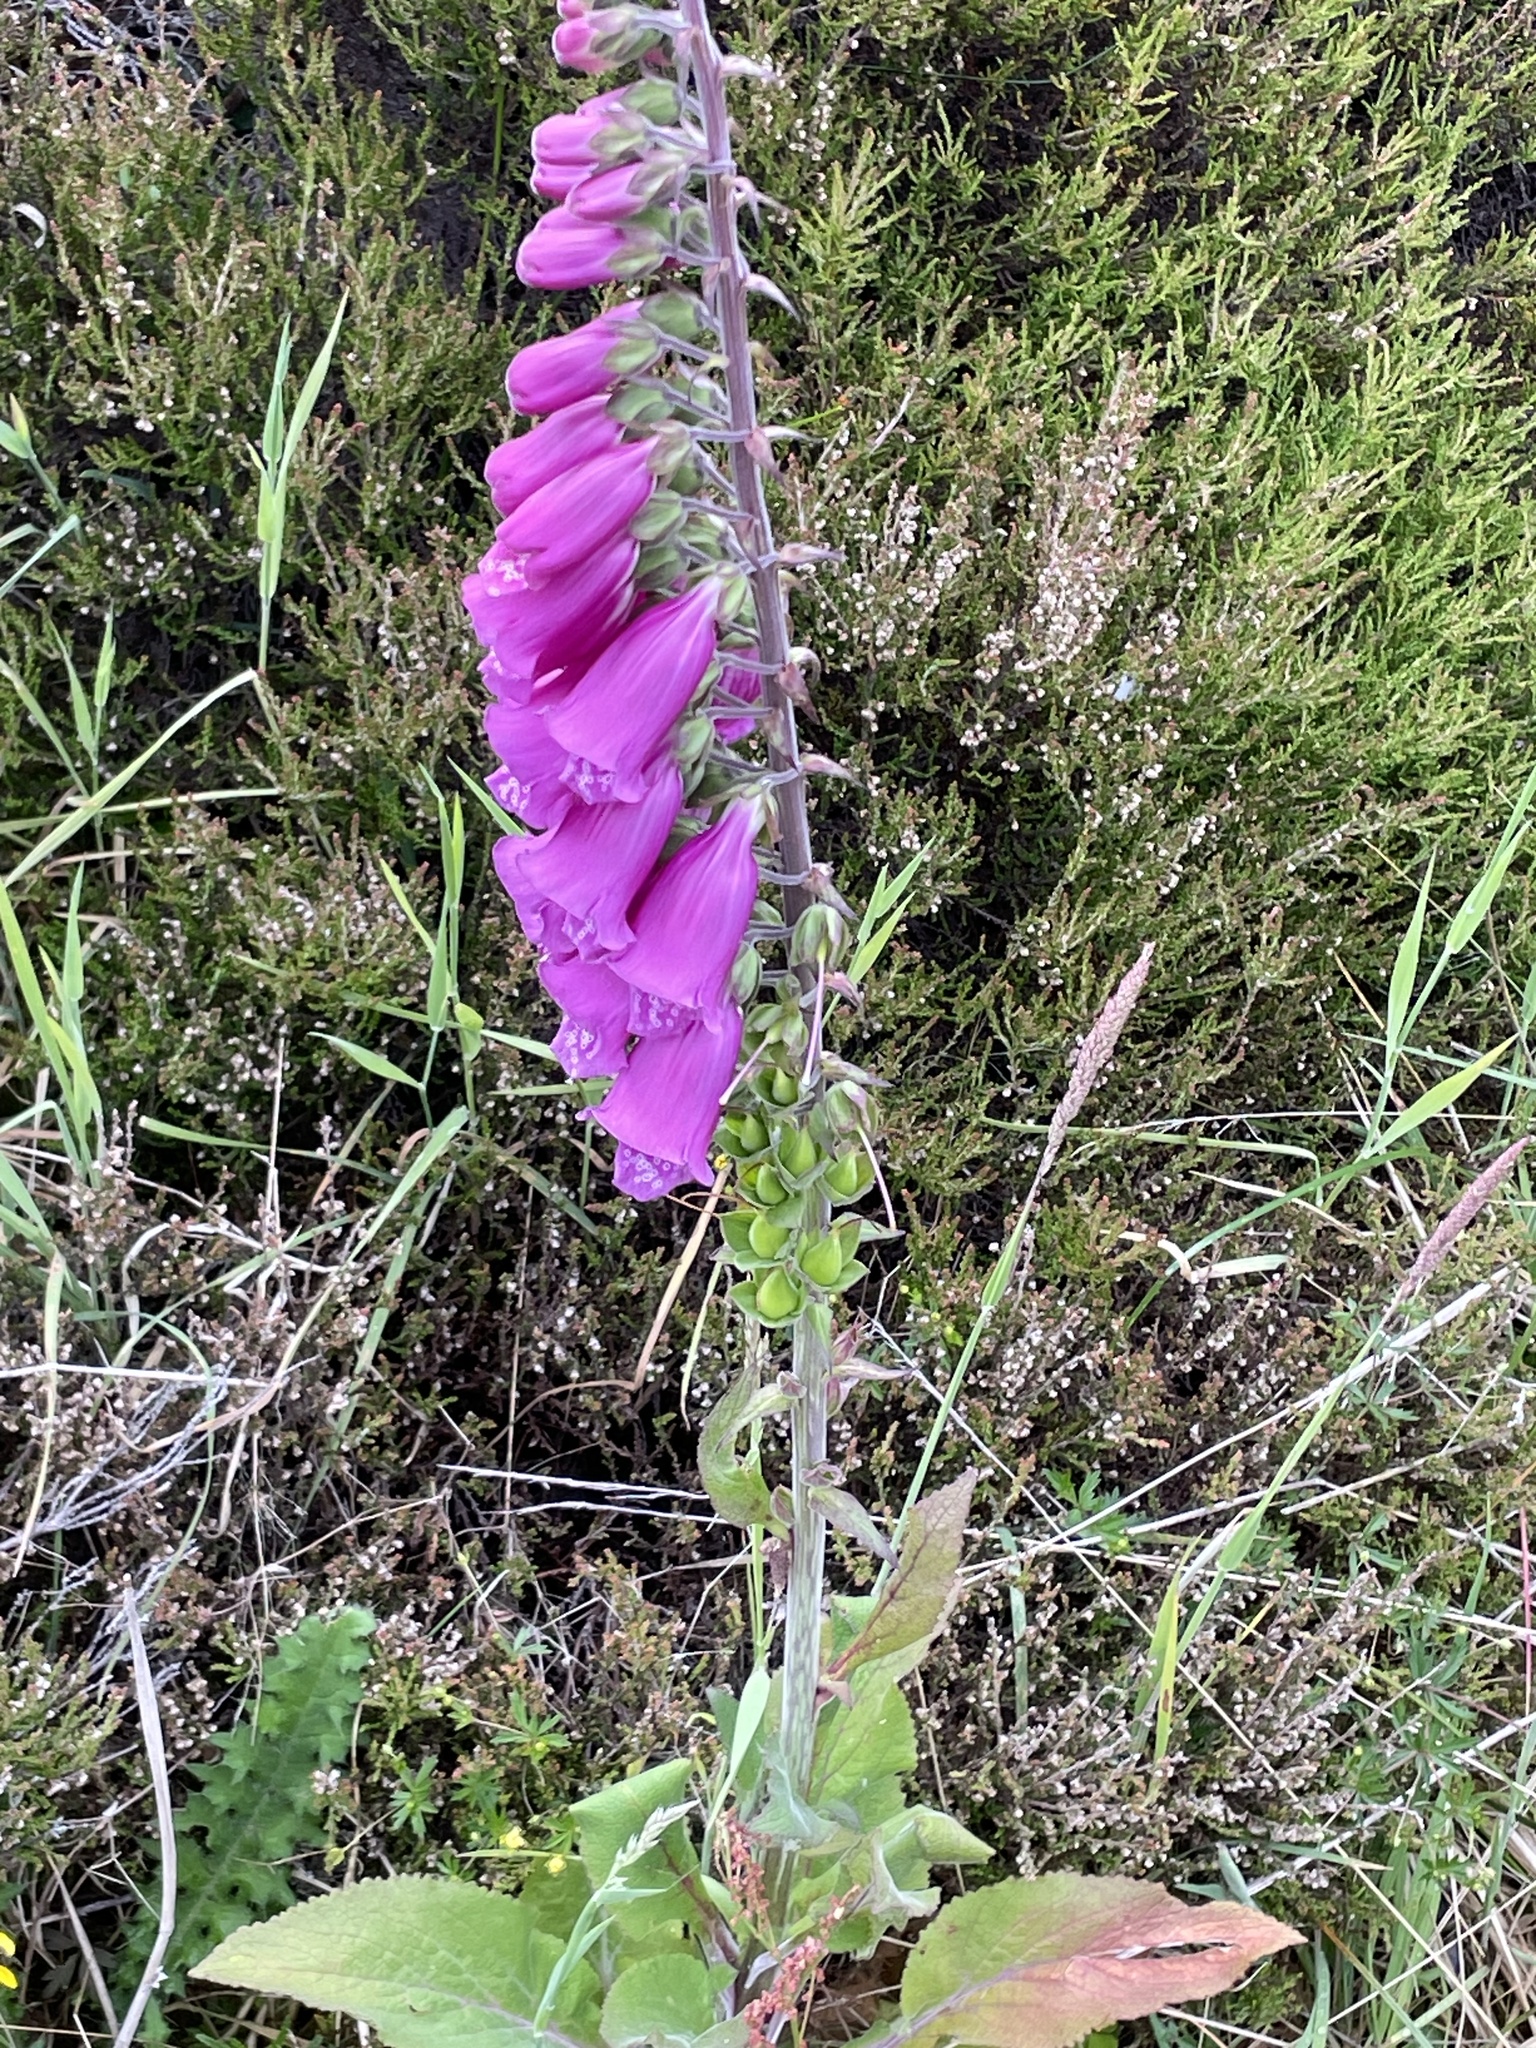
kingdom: Plantae
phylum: Tracheophyta
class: Magnoliopsida
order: Lamiales
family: Plantaginaceae
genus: Digitalis
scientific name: Digitalis purpurea
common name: Foxglove
